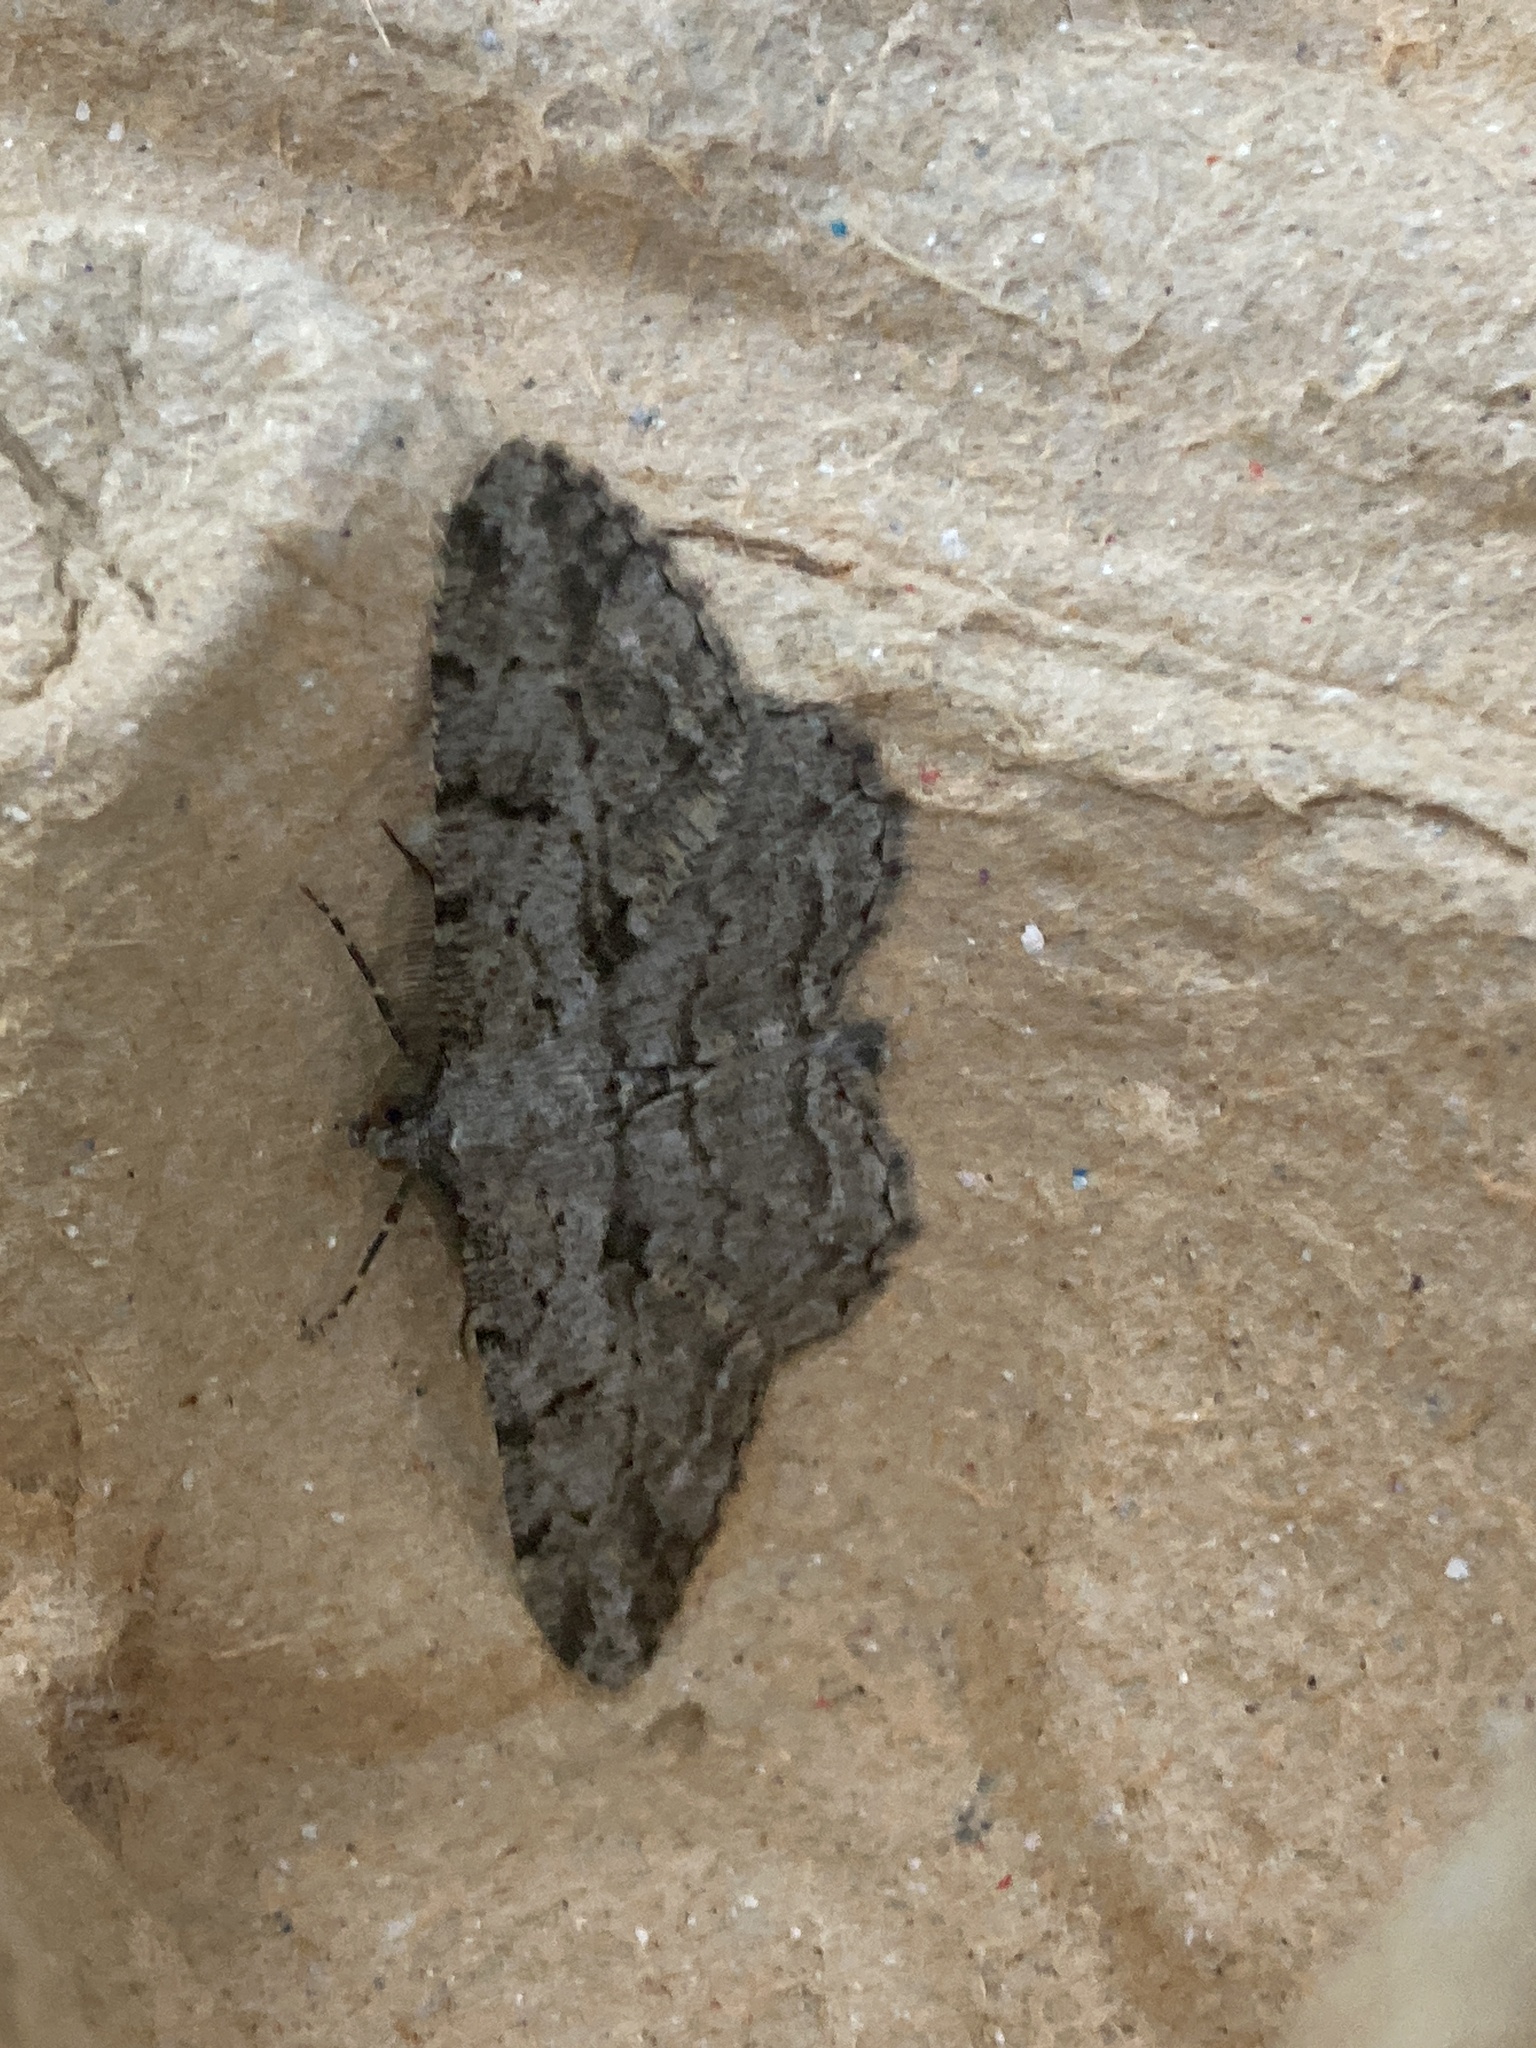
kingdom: Animalia
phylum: Arthropoda
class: Insecta
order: Lepidoptera
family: Geometridae
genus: Peribatodes
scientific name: Peribatodes rhomboidaria
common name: Willow beauty
